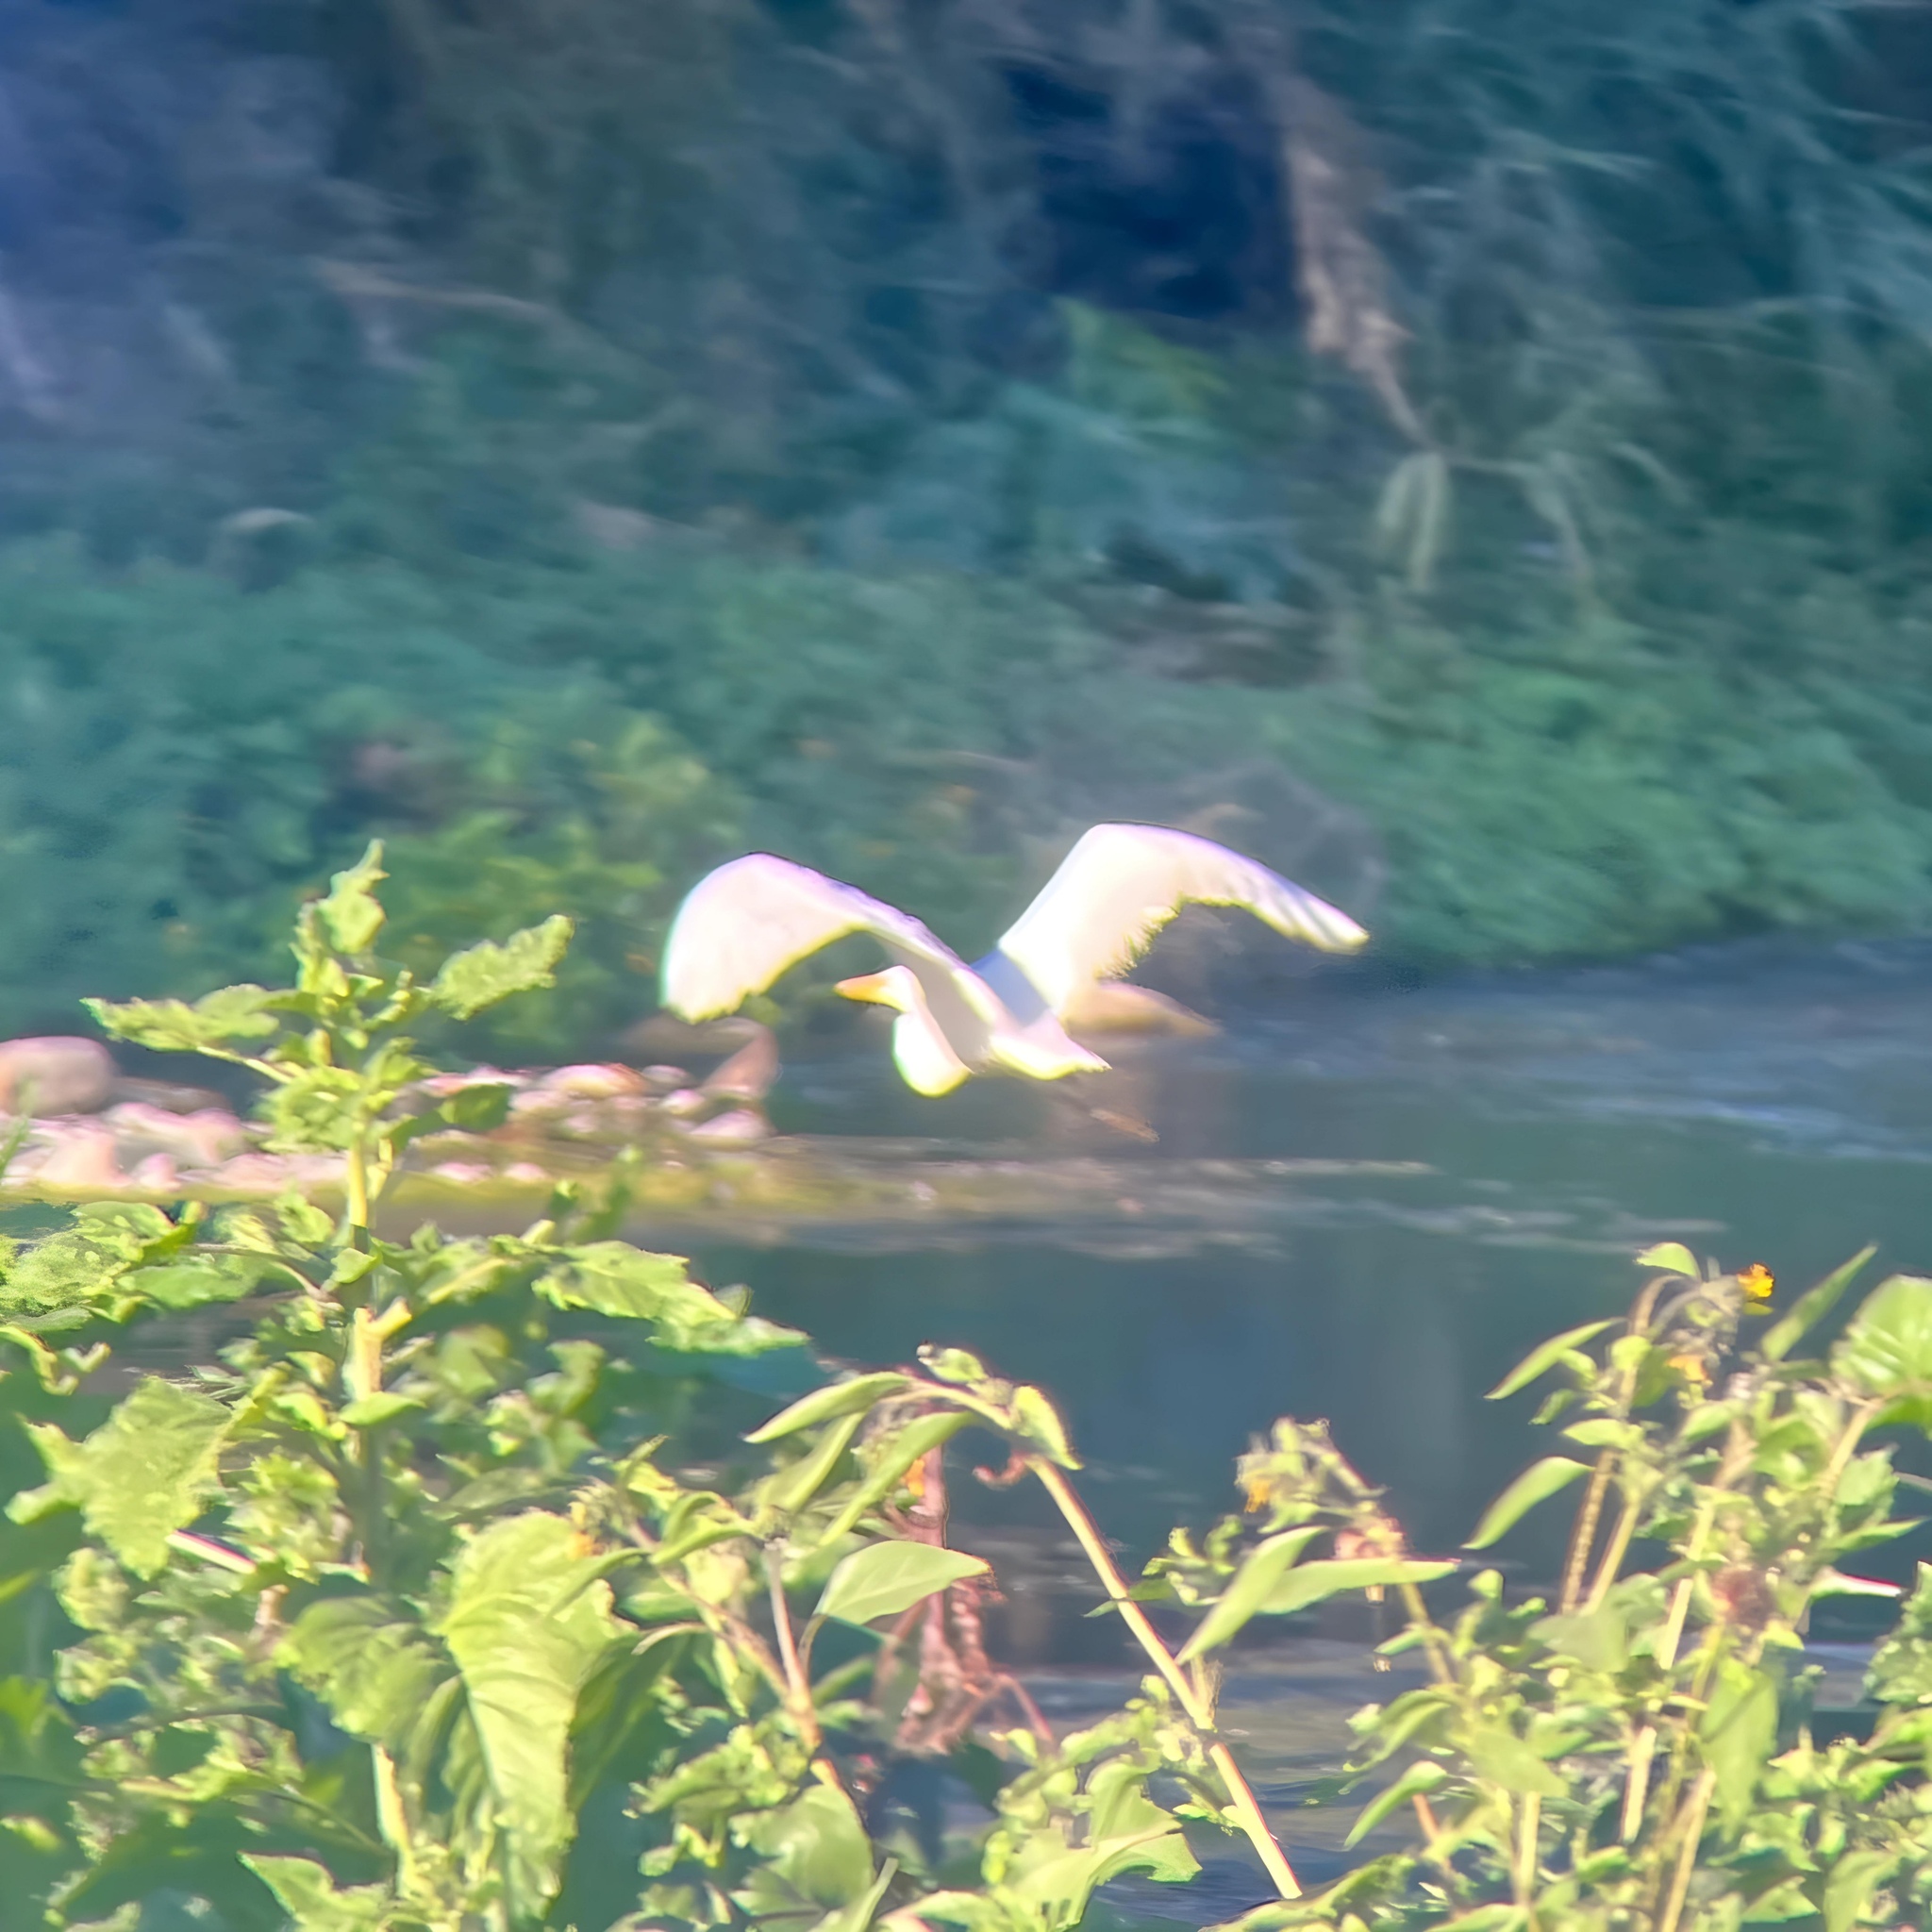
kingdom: Animalia
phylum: Chordata
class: Aves
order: Pelecaniformes
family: Ardeidae
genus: Ardea
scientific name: Ardea alba
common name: Great egret
